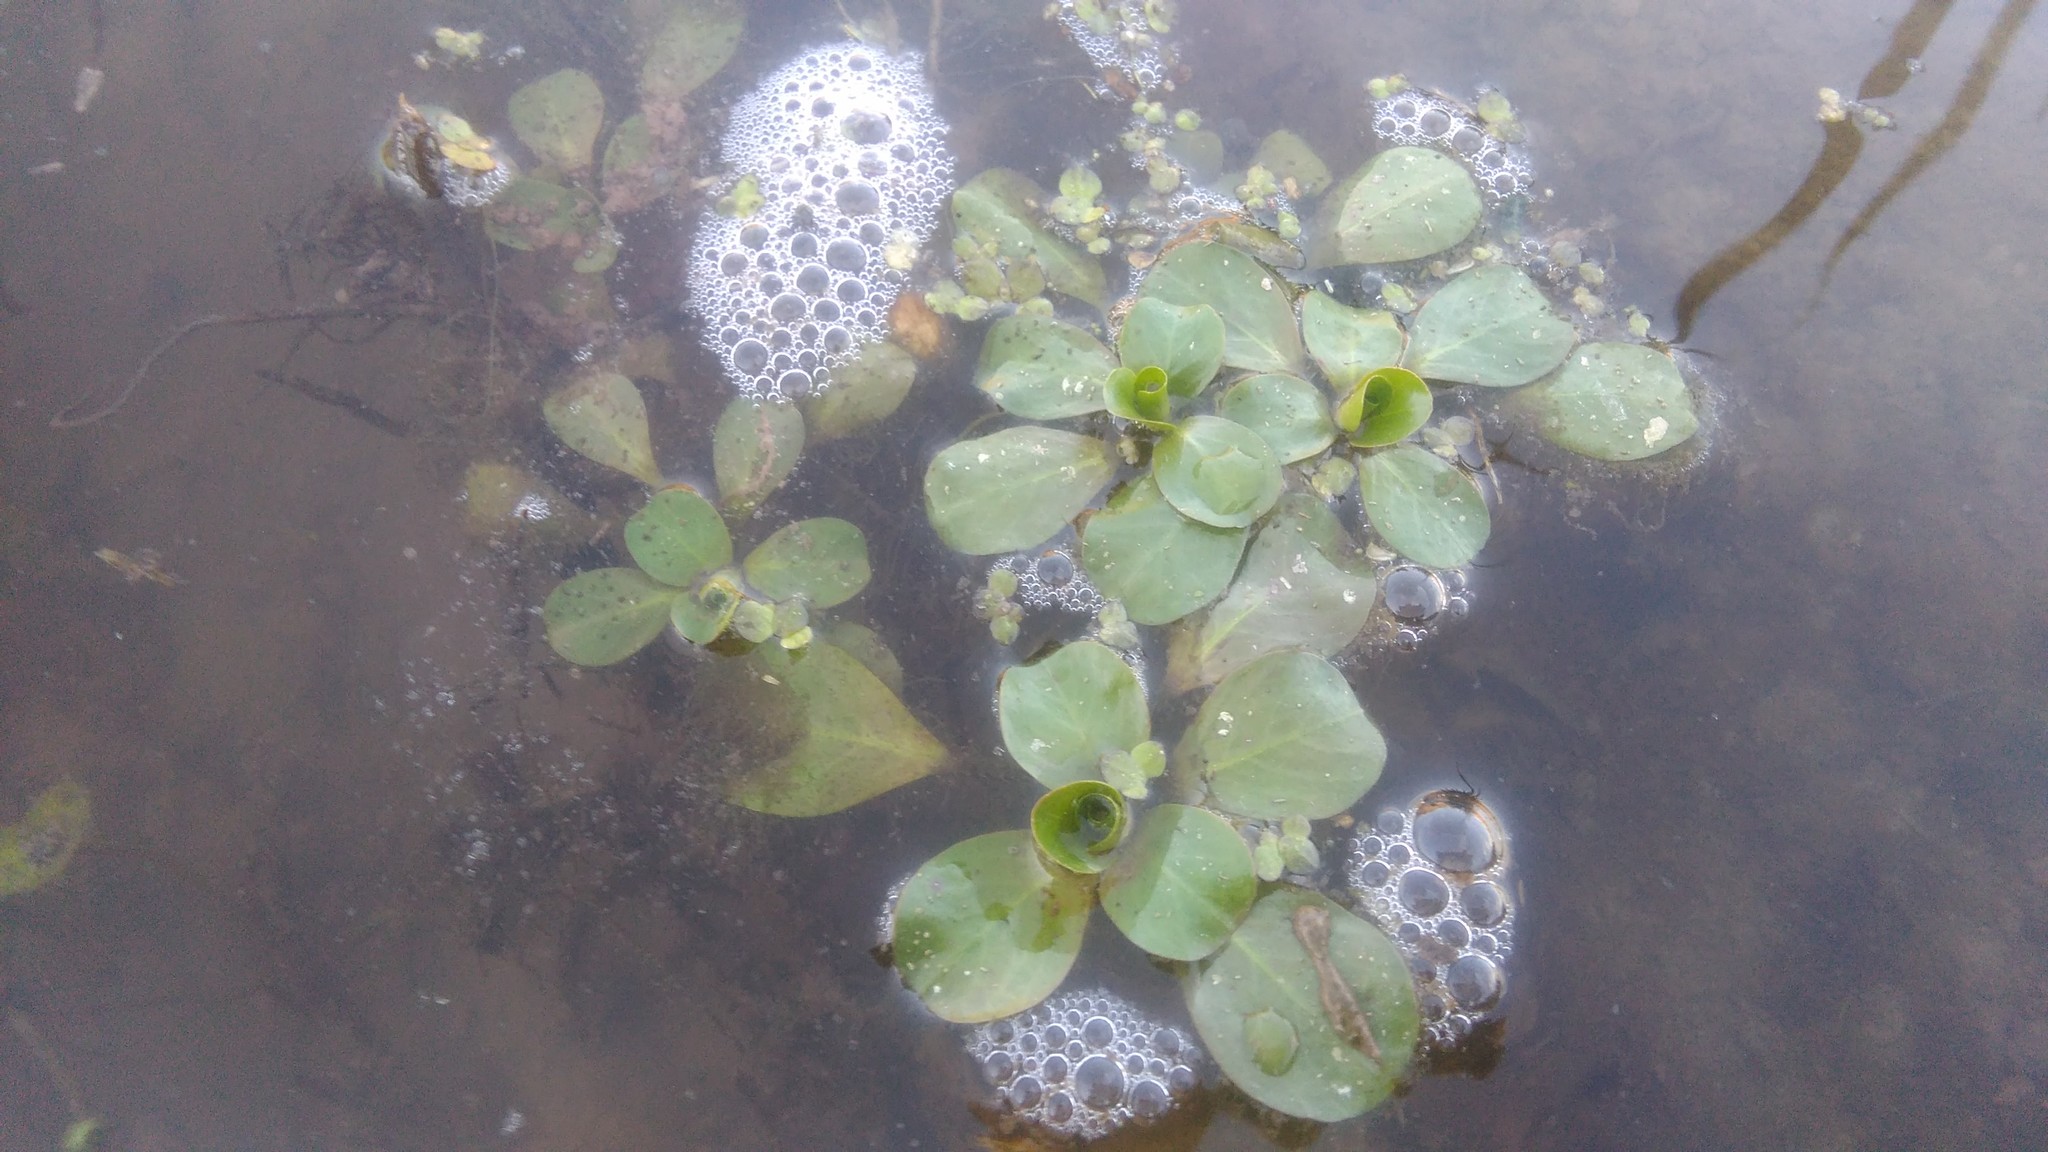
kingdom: Plantae
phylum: Tracheophyta
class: Magnoliopsida
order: Myrtales
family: Onagraceae
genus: Ludwigia
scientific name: Ludwigia peploides
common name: Floating primrose-willow
